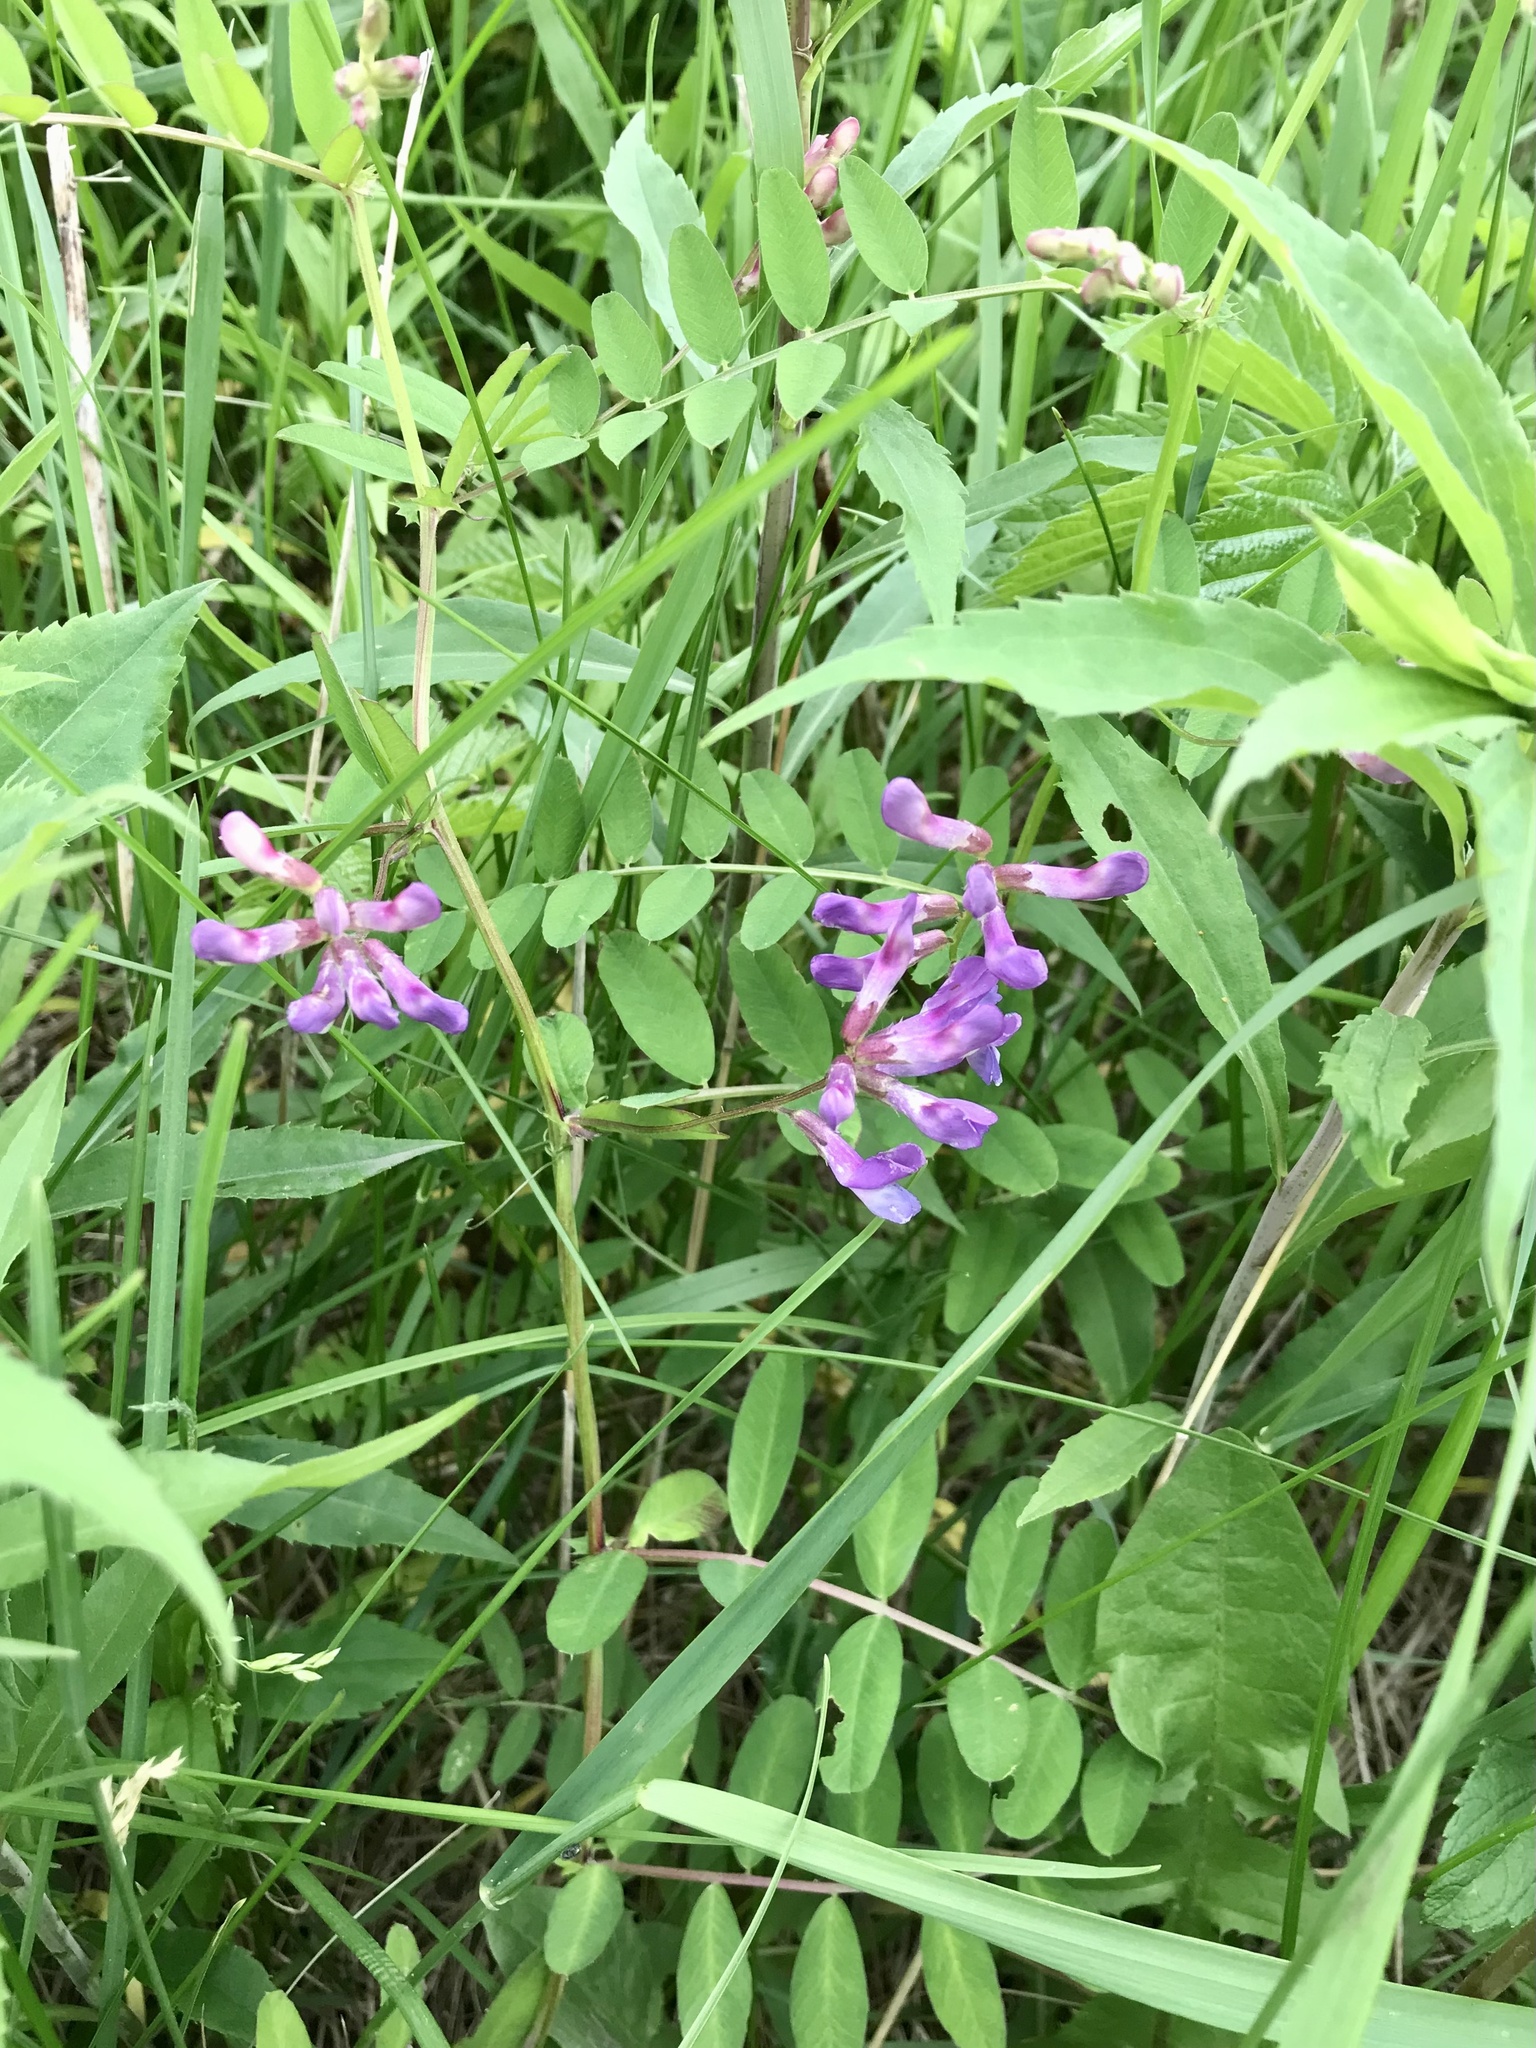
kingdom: Plantae
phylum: Tracheophyta
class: Magnoliopsida
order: Fabales
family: Fabaceae
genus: Vicia
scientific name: Vicia americana
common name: American vetch
